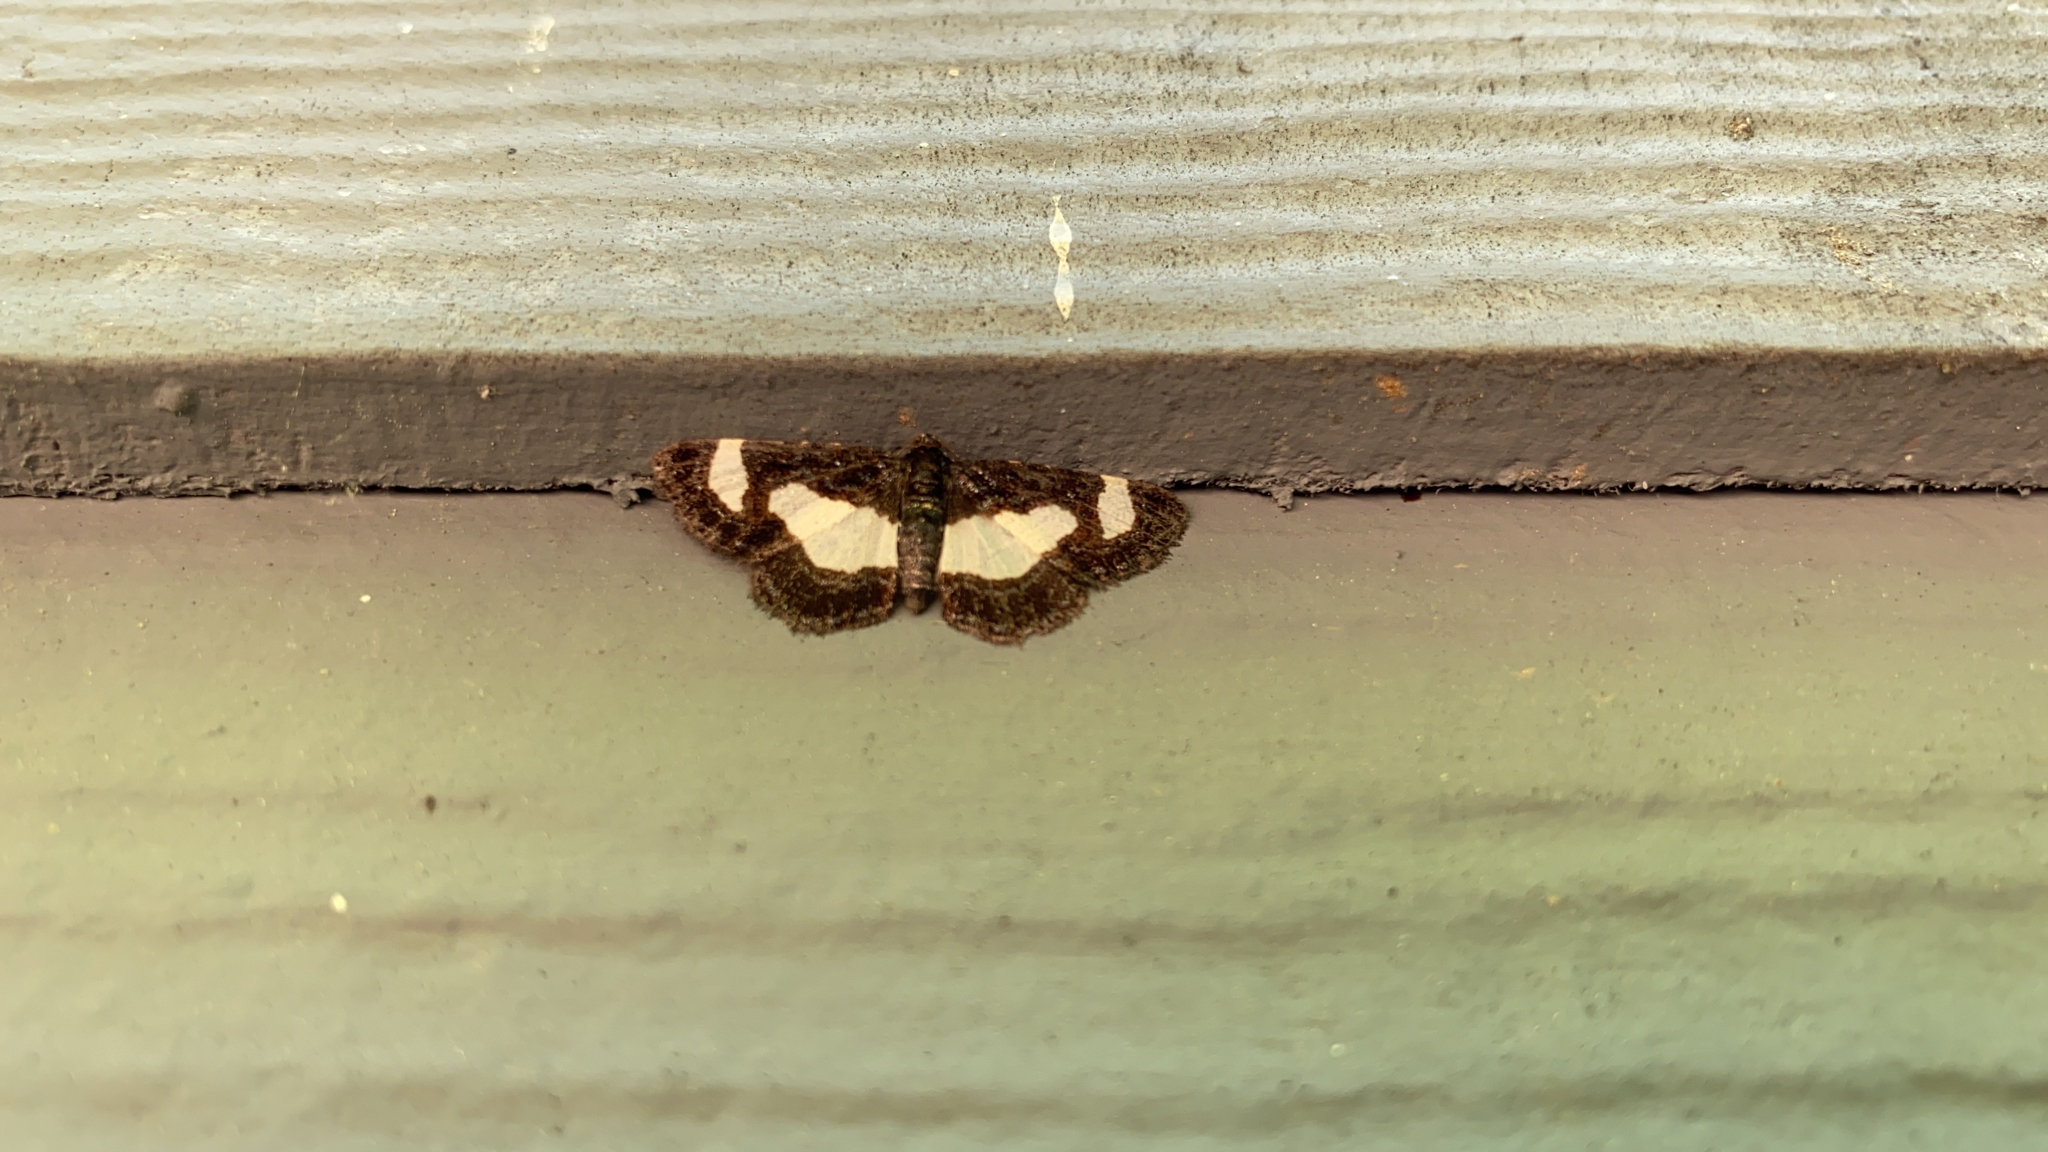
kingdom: Animalia
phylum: Arthropoda
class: Insecta
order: Lepidoptera
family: Geometridae
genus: Heliomata
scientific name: Heliomata cycladata
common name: Common spring moth
